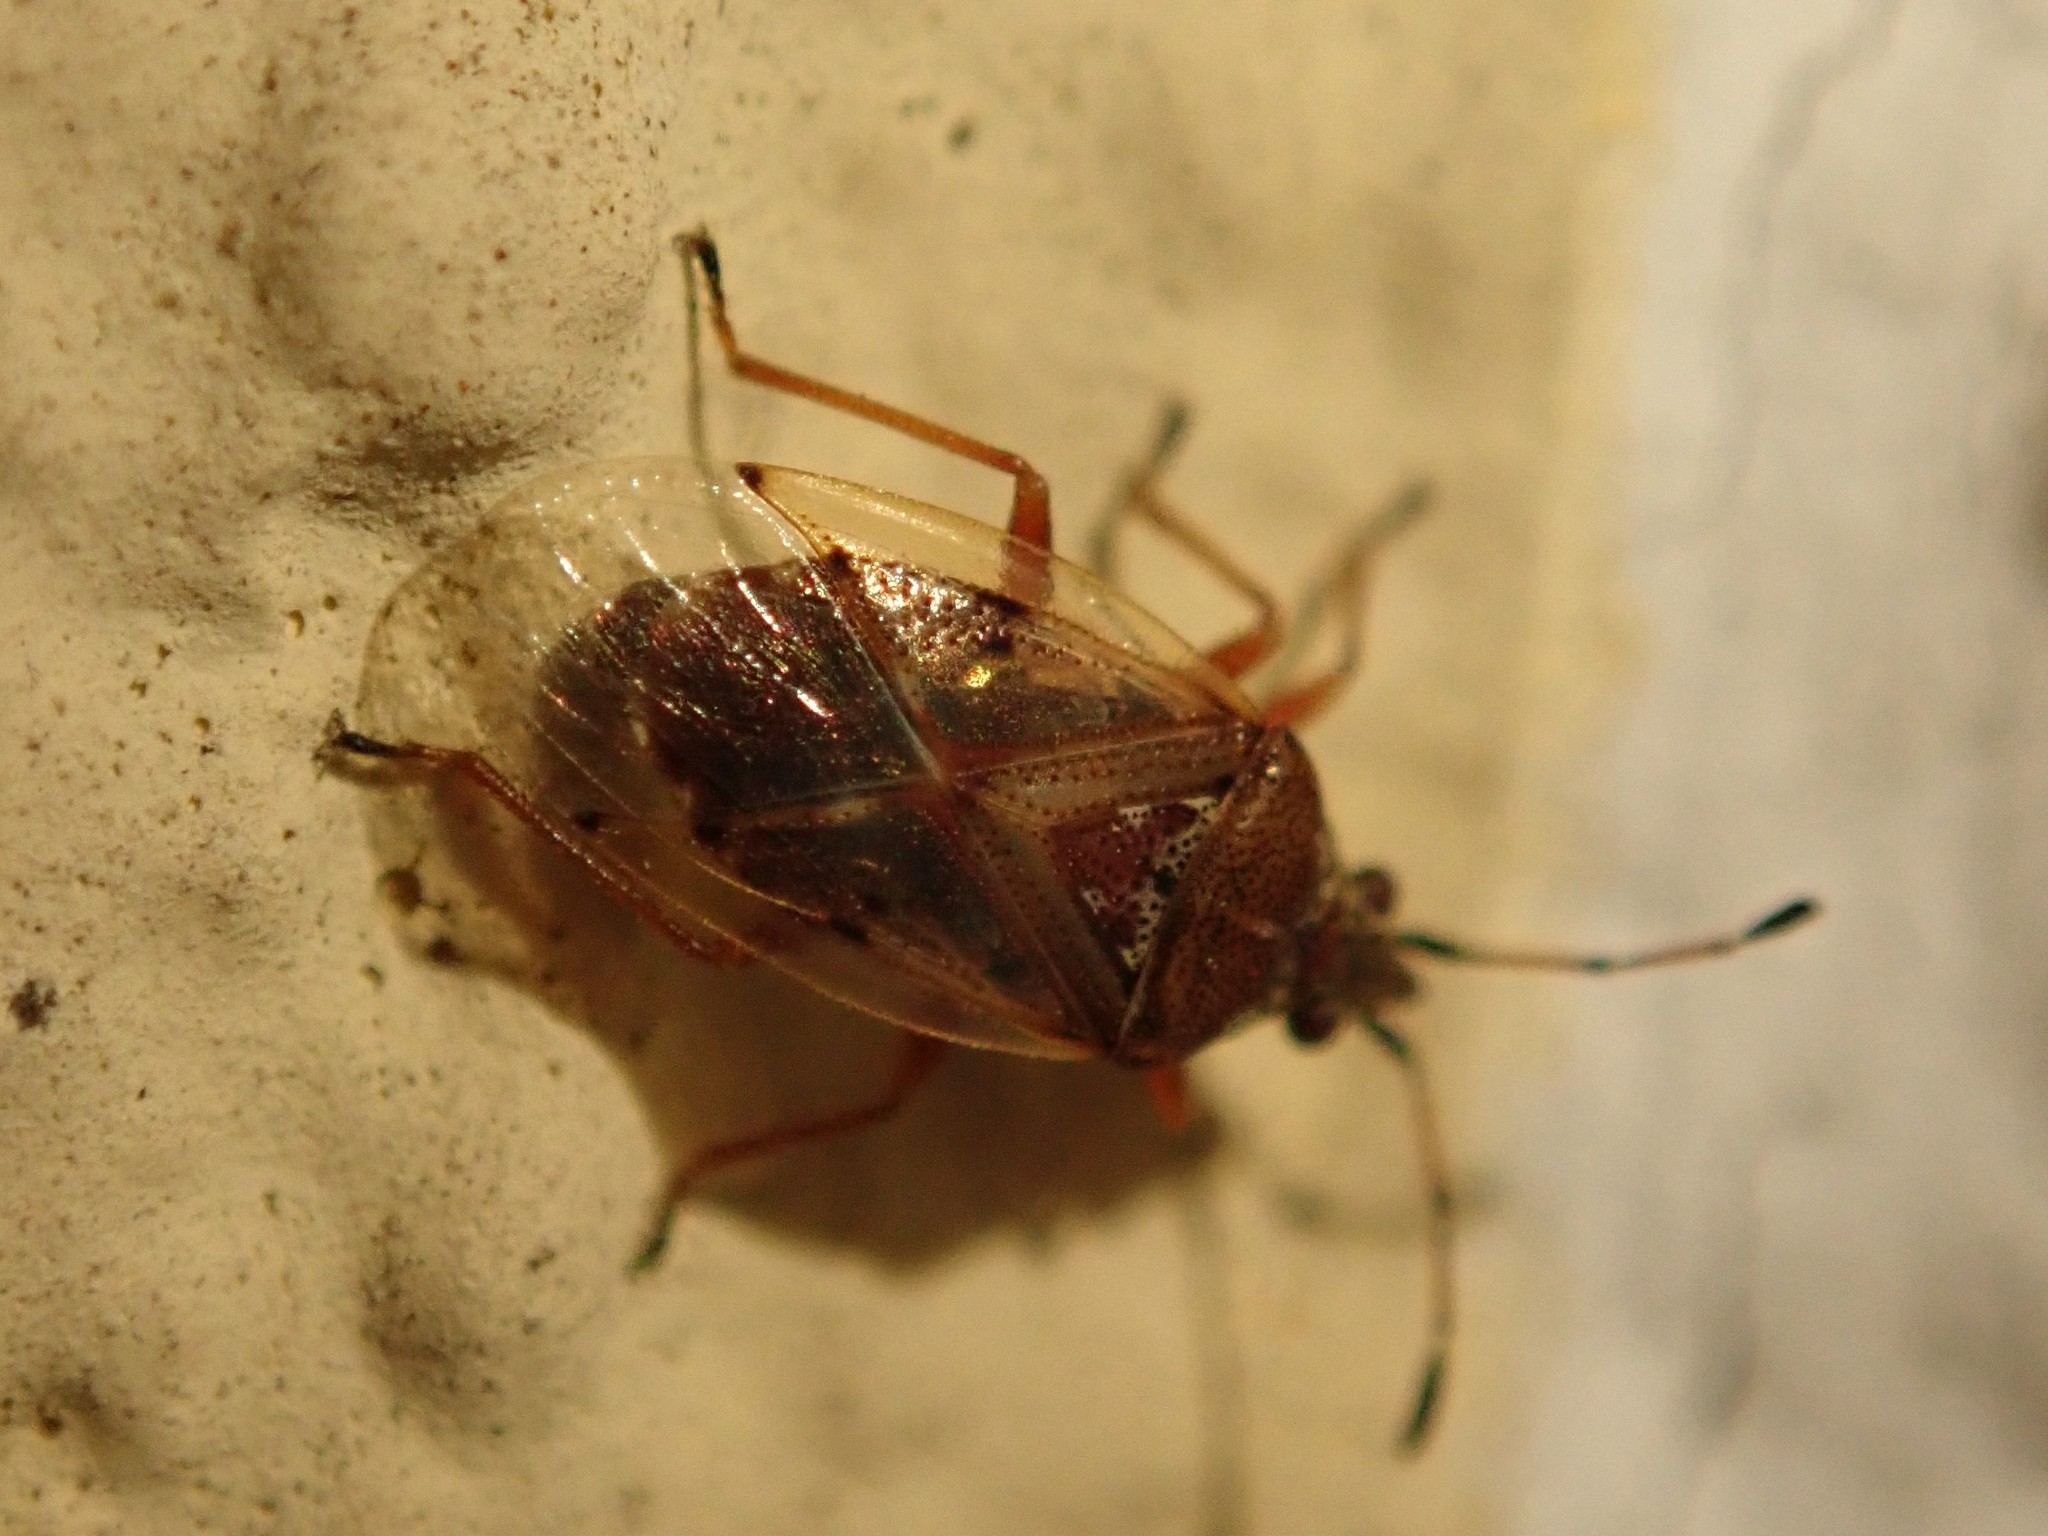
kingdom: Animalia
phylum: Arthropoda
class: Insecta
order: Hemiptera
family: Lygaeidae
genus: Kleidocerys
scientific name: Kleidocerys resedae
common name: Birch catkin bug
